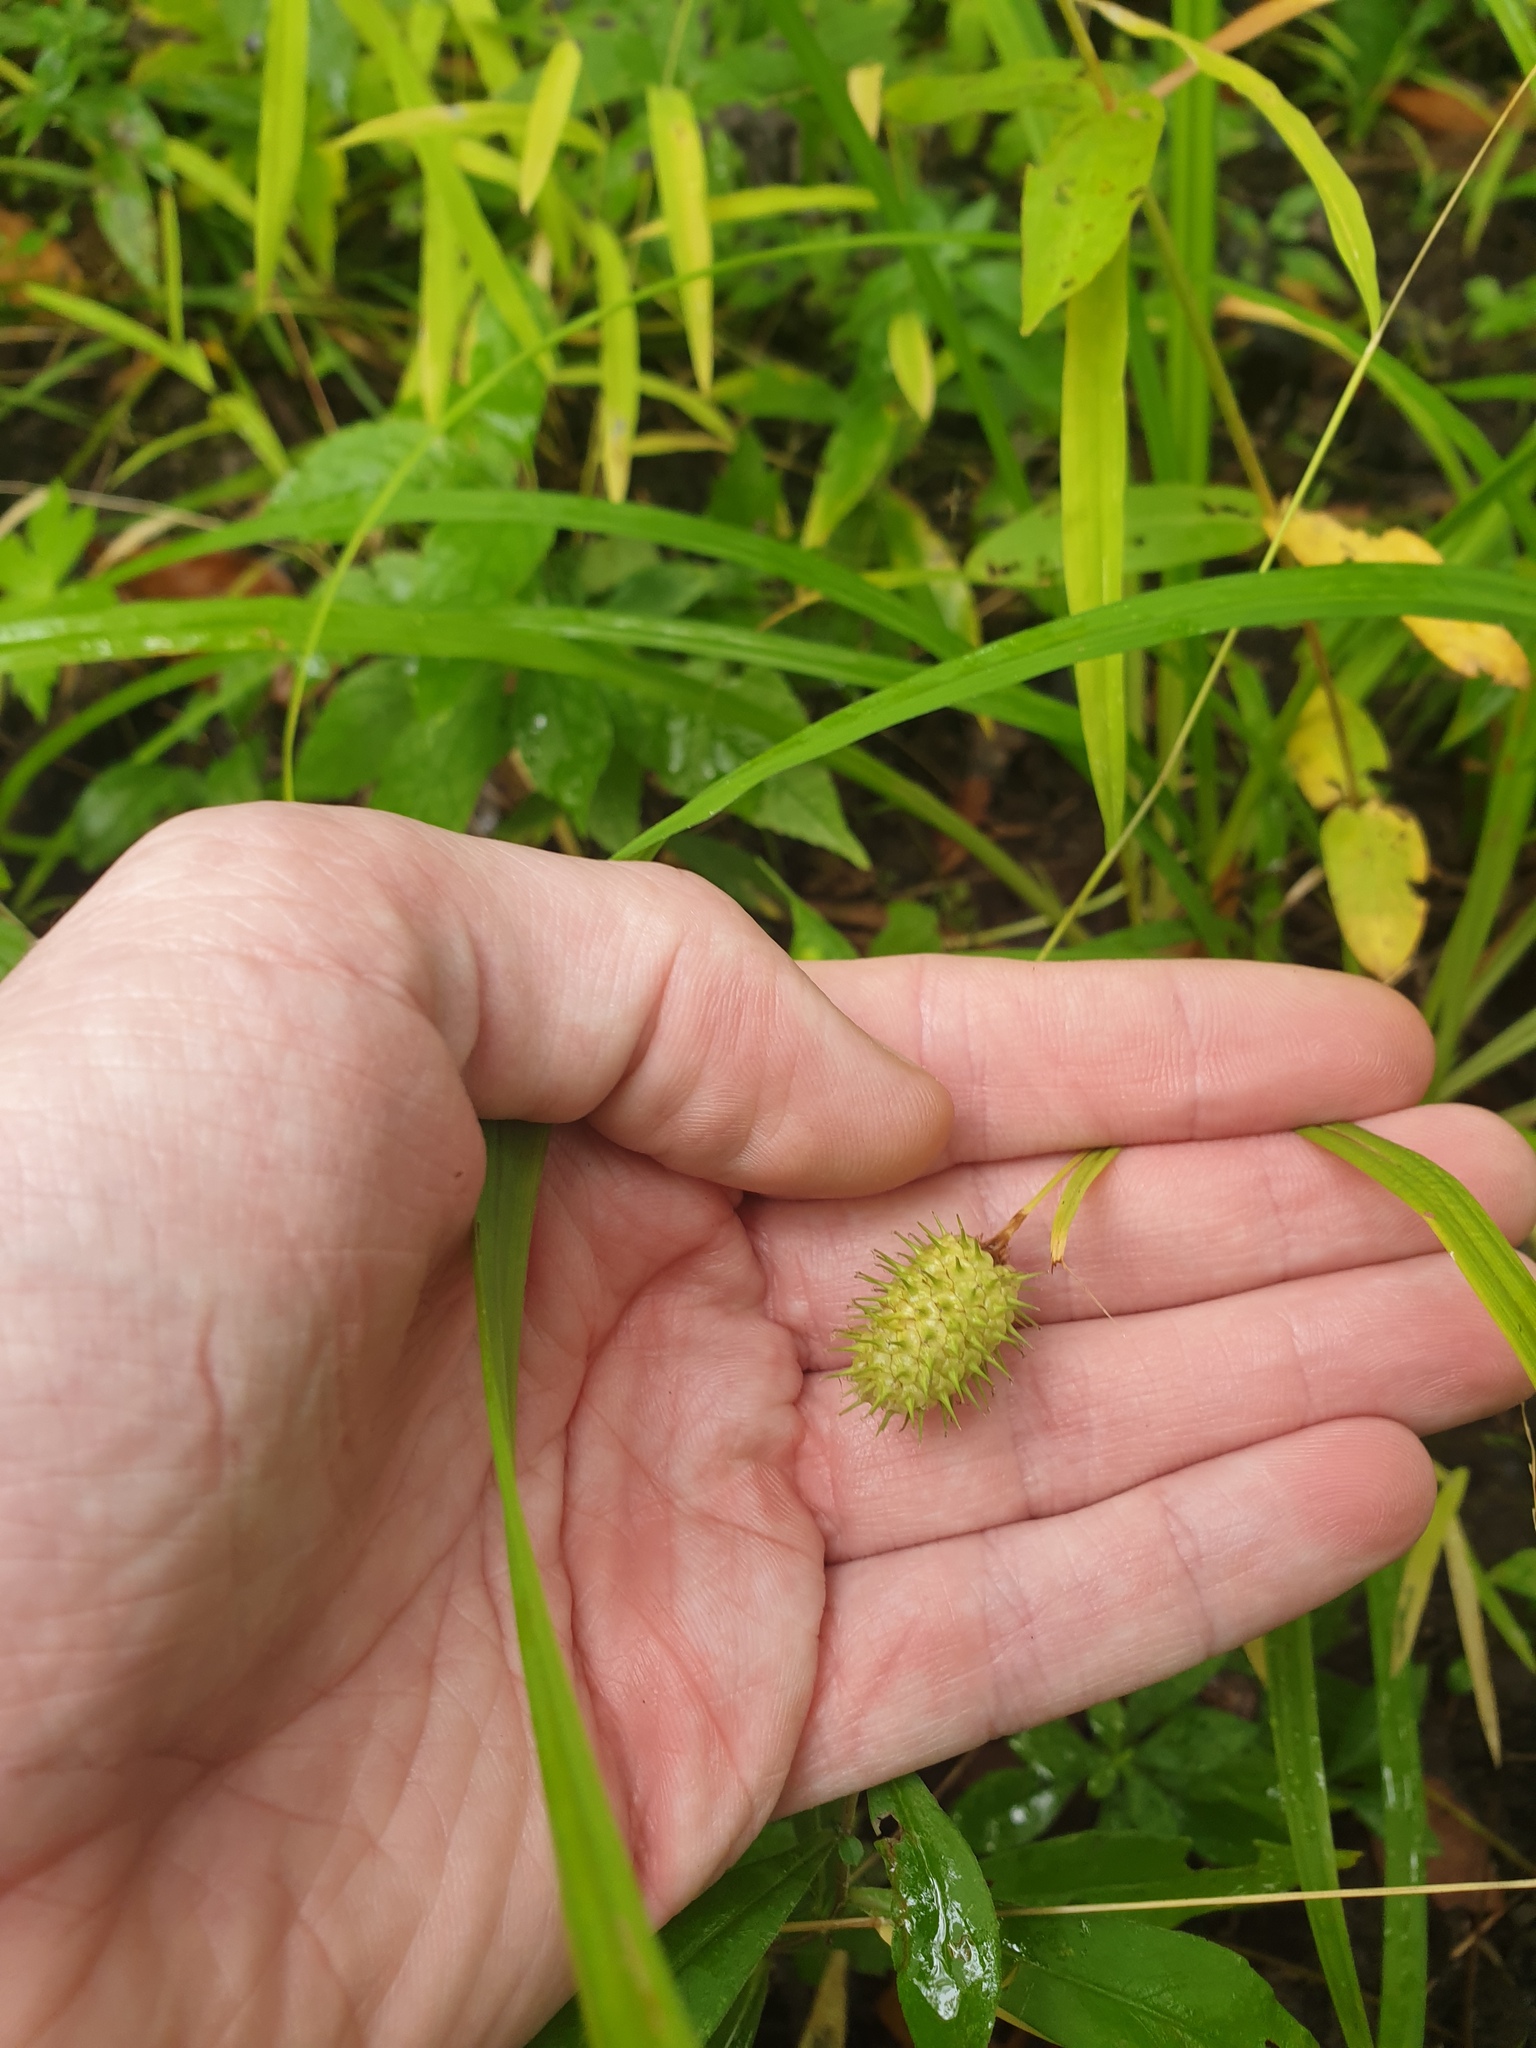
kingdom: Plantae
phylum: Tracheophyta
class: Liliopsida
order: Poales
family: Cyperaceae
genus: Carex
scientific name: Carex typhina
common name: Cattail sedge
